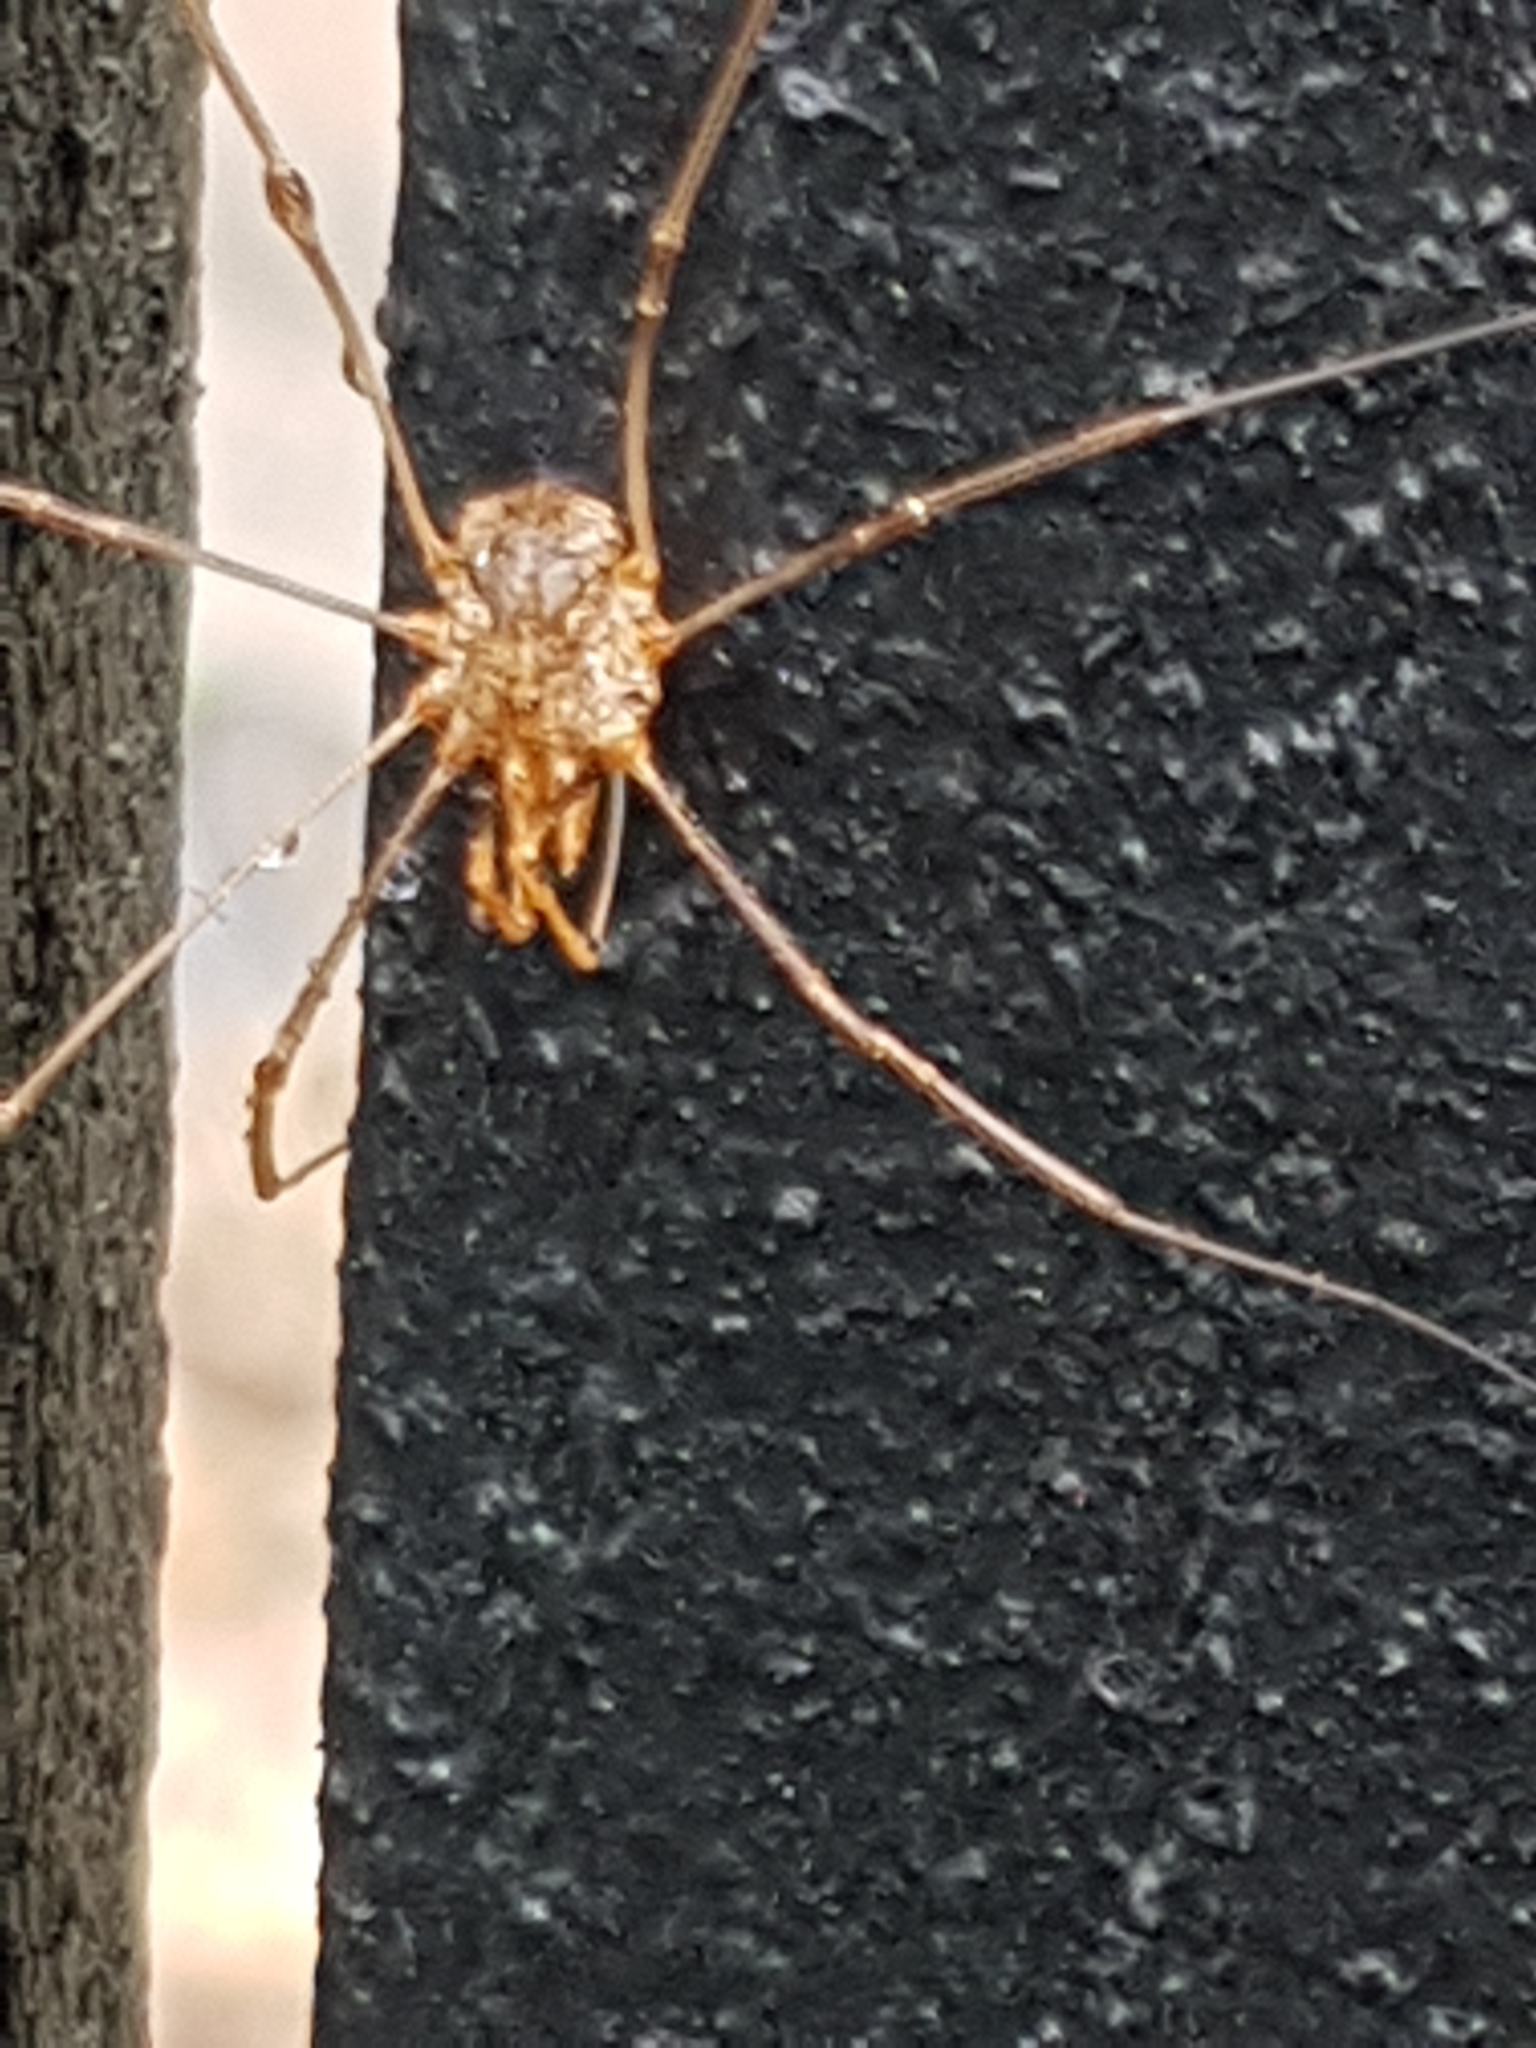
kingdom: Animalia
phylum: Arthropoda
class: Arachnida
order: Opiliones
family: Phalangiidae
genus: Phalangium
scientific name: Phalangium opilio
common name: Daddy longleg
